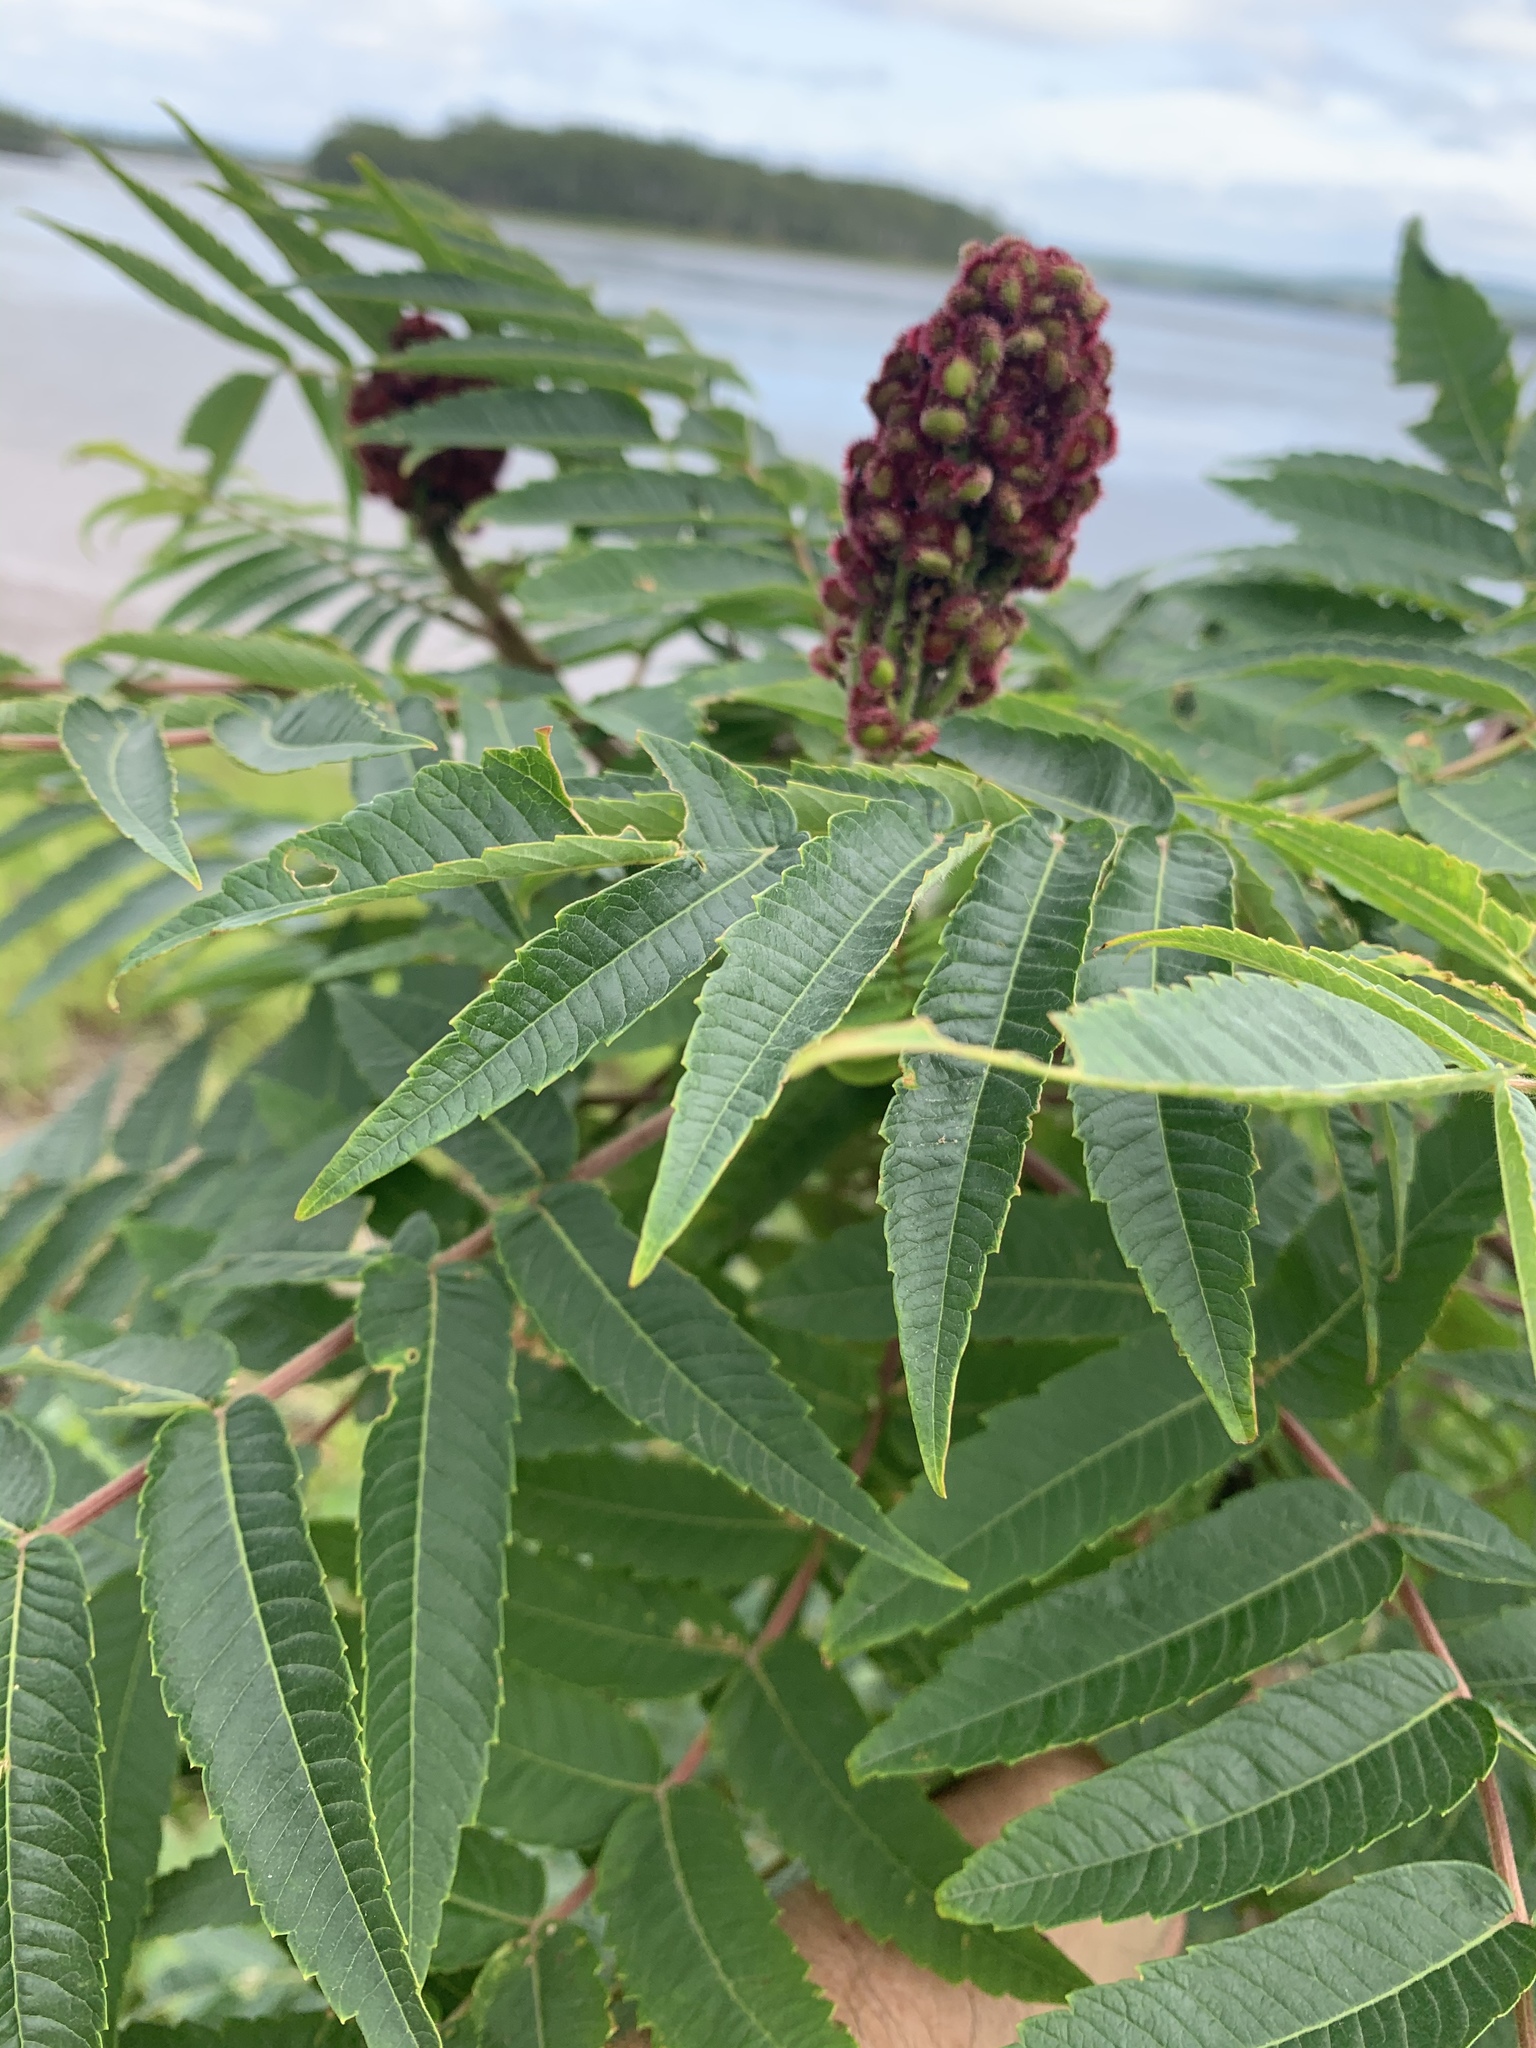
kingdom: Plantae
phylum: Tracheophyta
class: Magnoliopsida
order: Sapindales
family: Anacardiaceae
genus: Rhus
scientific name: Rhus typhina
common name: Staghorn sumac
